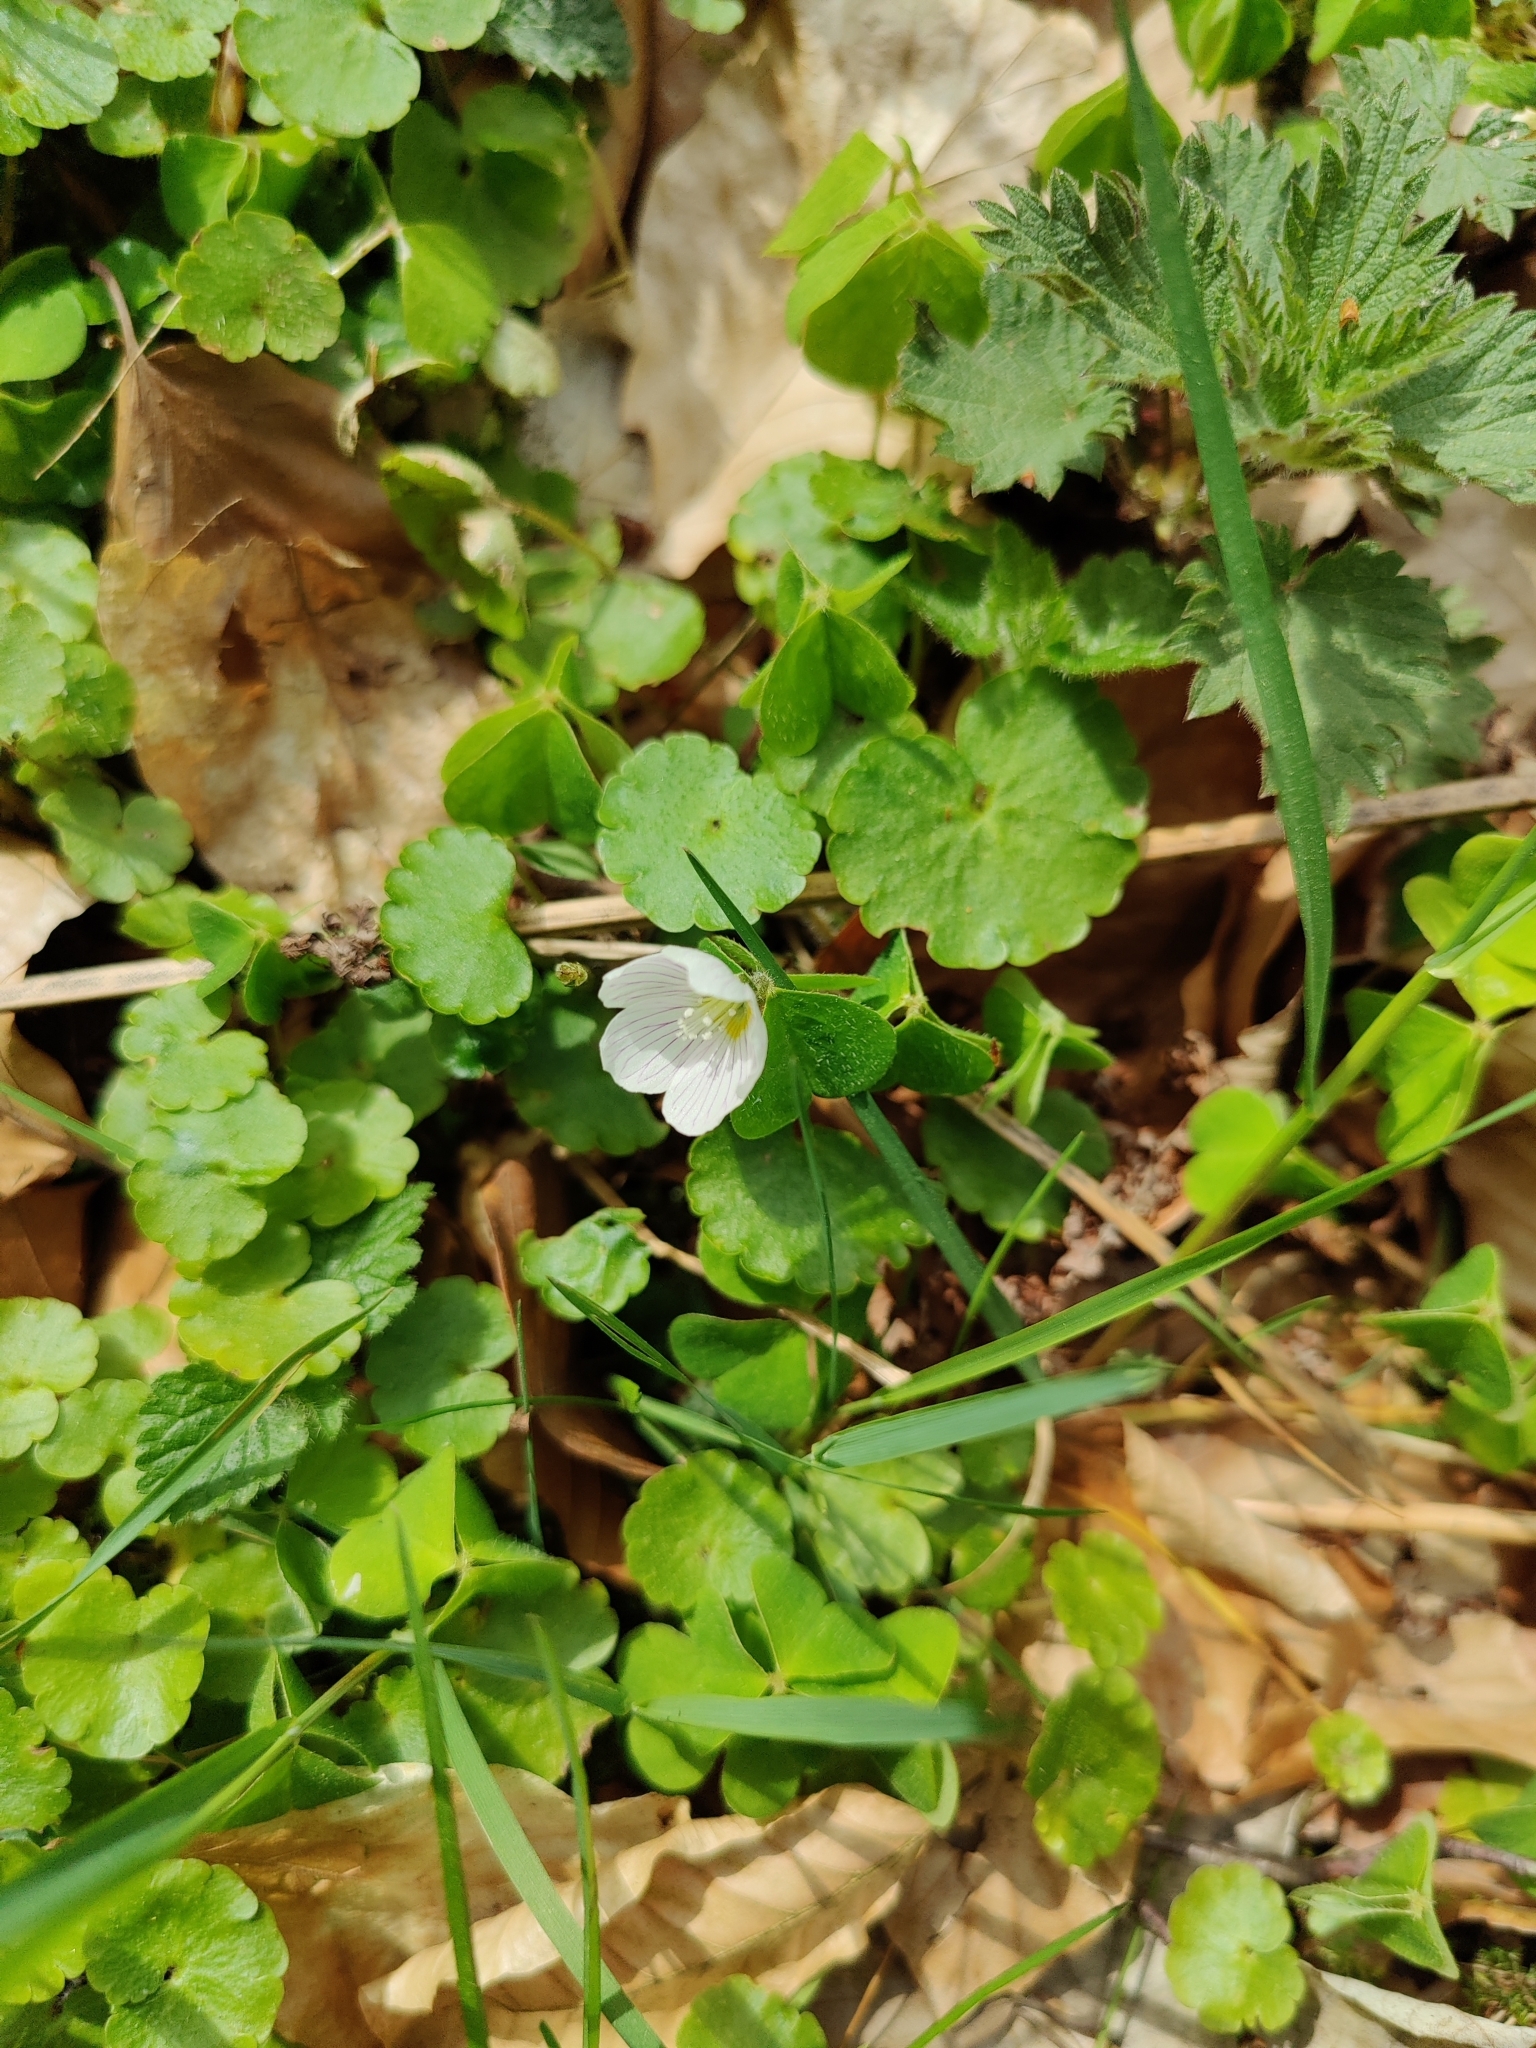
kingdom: Plantae
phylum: Tracheophyta
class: Magnoliopsida
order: Oxalidales
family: Oxalidaceae
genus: Oxalis
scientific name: Oxalis acetosella
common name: Wood-sorrel
